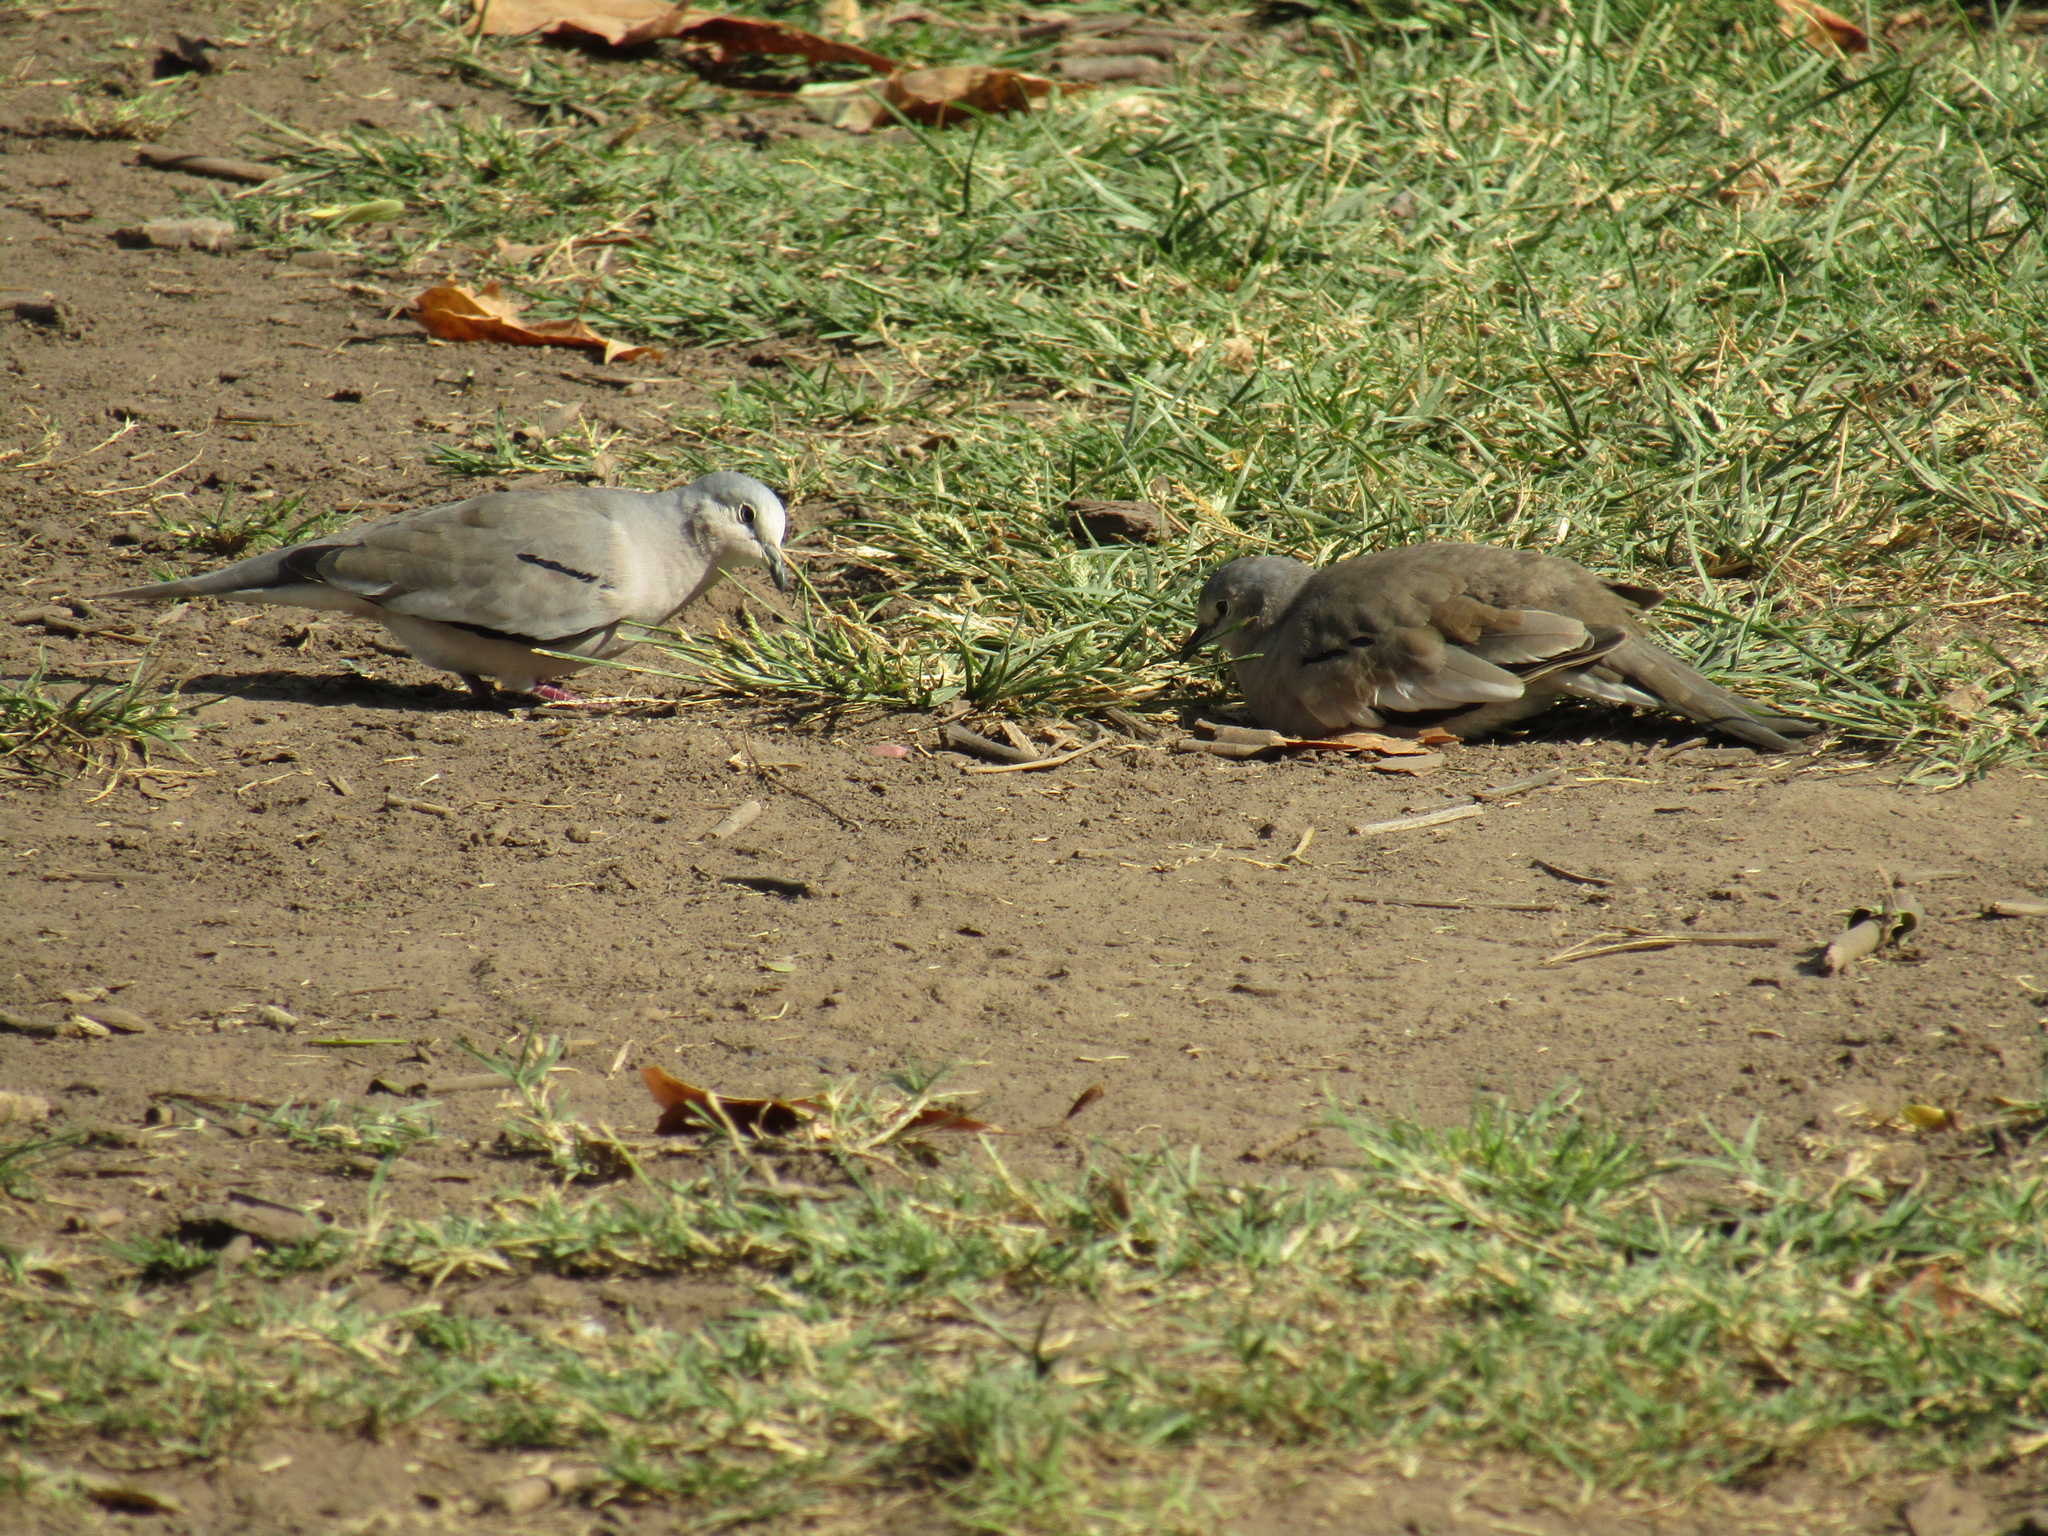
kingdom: Animalia
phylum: Chordata
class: Aves
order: Columbiformes
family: Columbidae
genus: Columbina
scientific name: Columbina picui
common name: Picui ground dove
